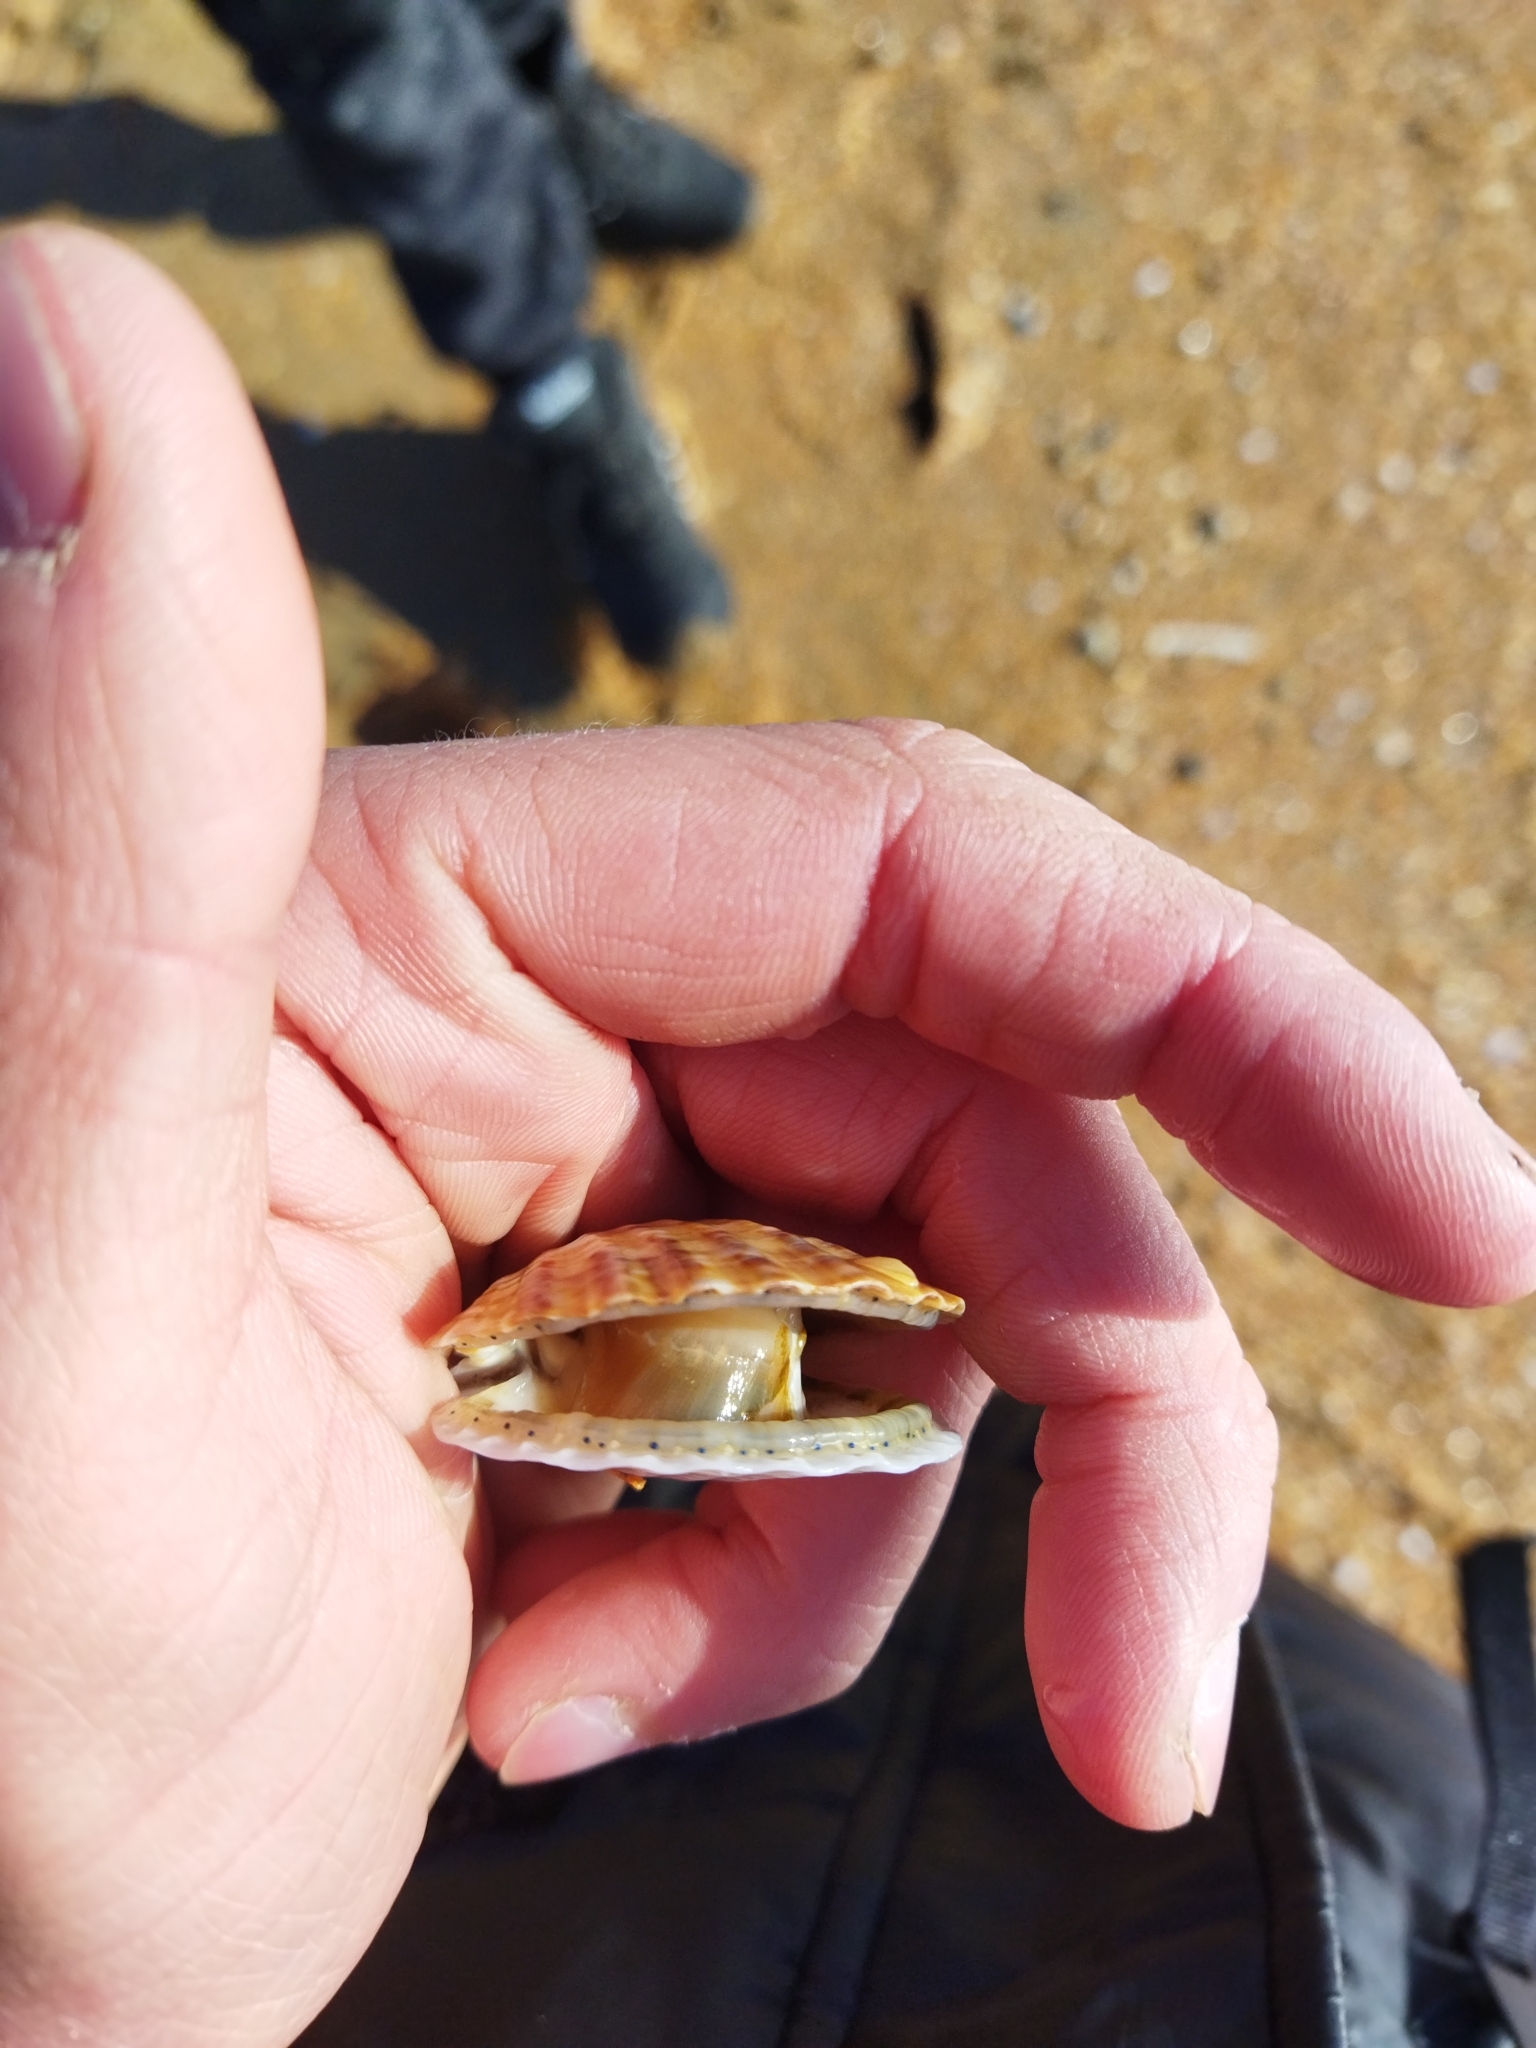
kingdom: Animalia
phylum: Mollusca
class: Bivalvia
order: Pectinida
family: Pectinidae
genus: Flexopecten
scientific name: Flexopecten glaber
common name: Smooth scallop
